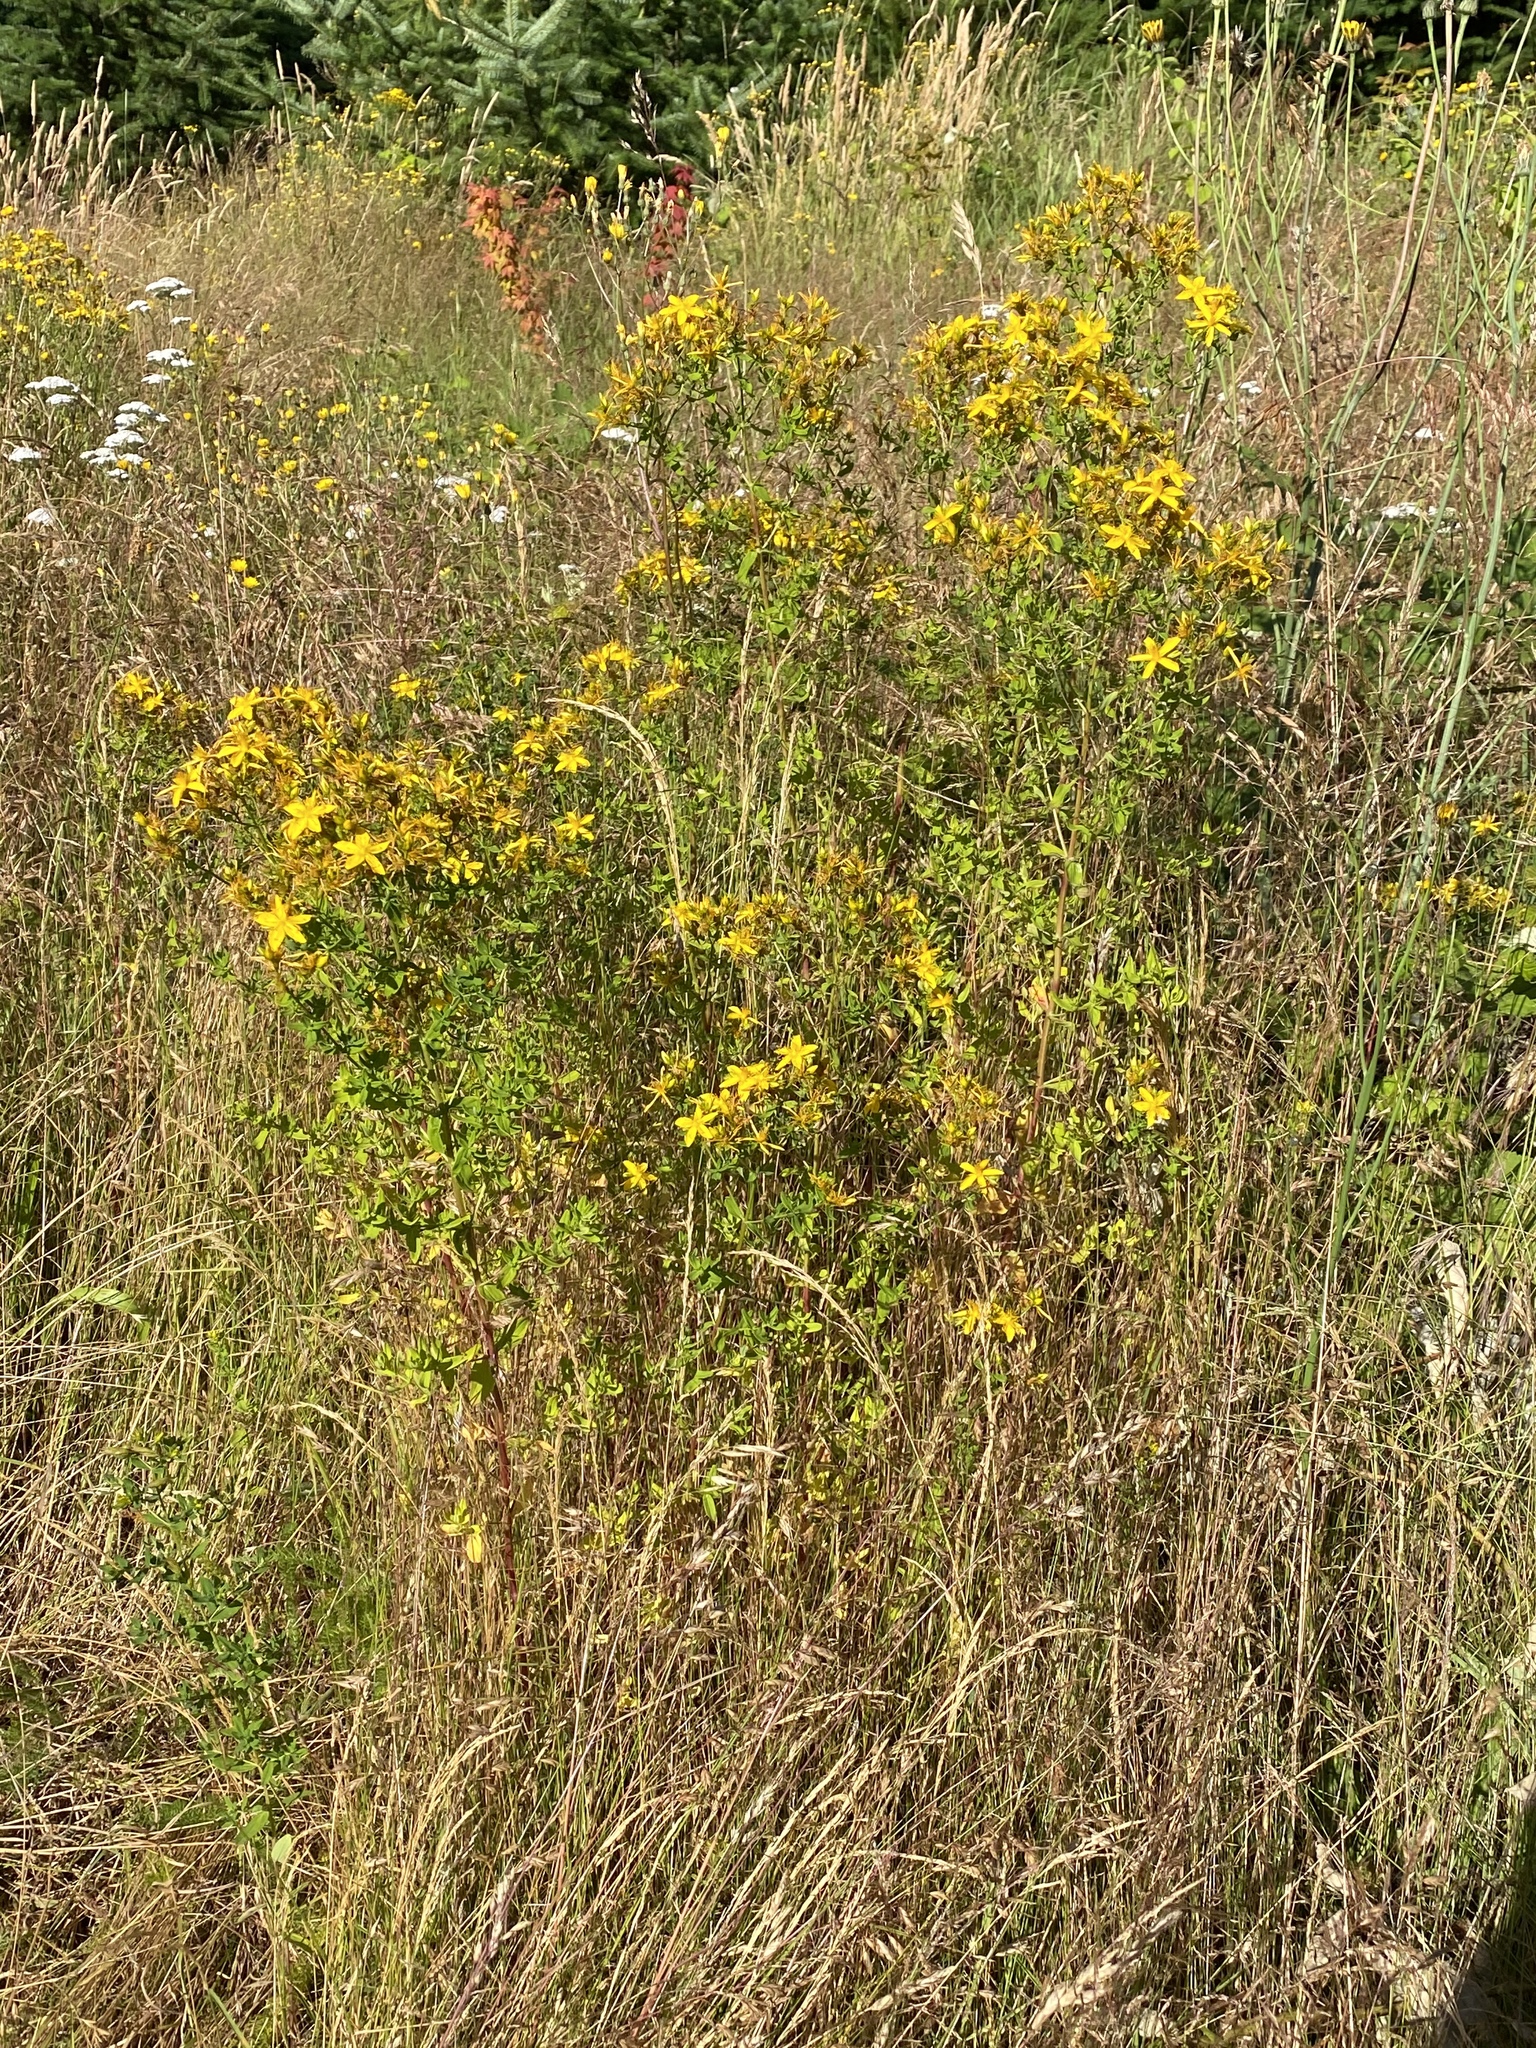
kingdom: Plantae
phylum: Tracheophyta
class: Magnoliopsida
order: Malpighiales
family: Hypericaceae
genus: Hypericum
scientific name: Hypericum perforatum
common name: Common st. johnswort
